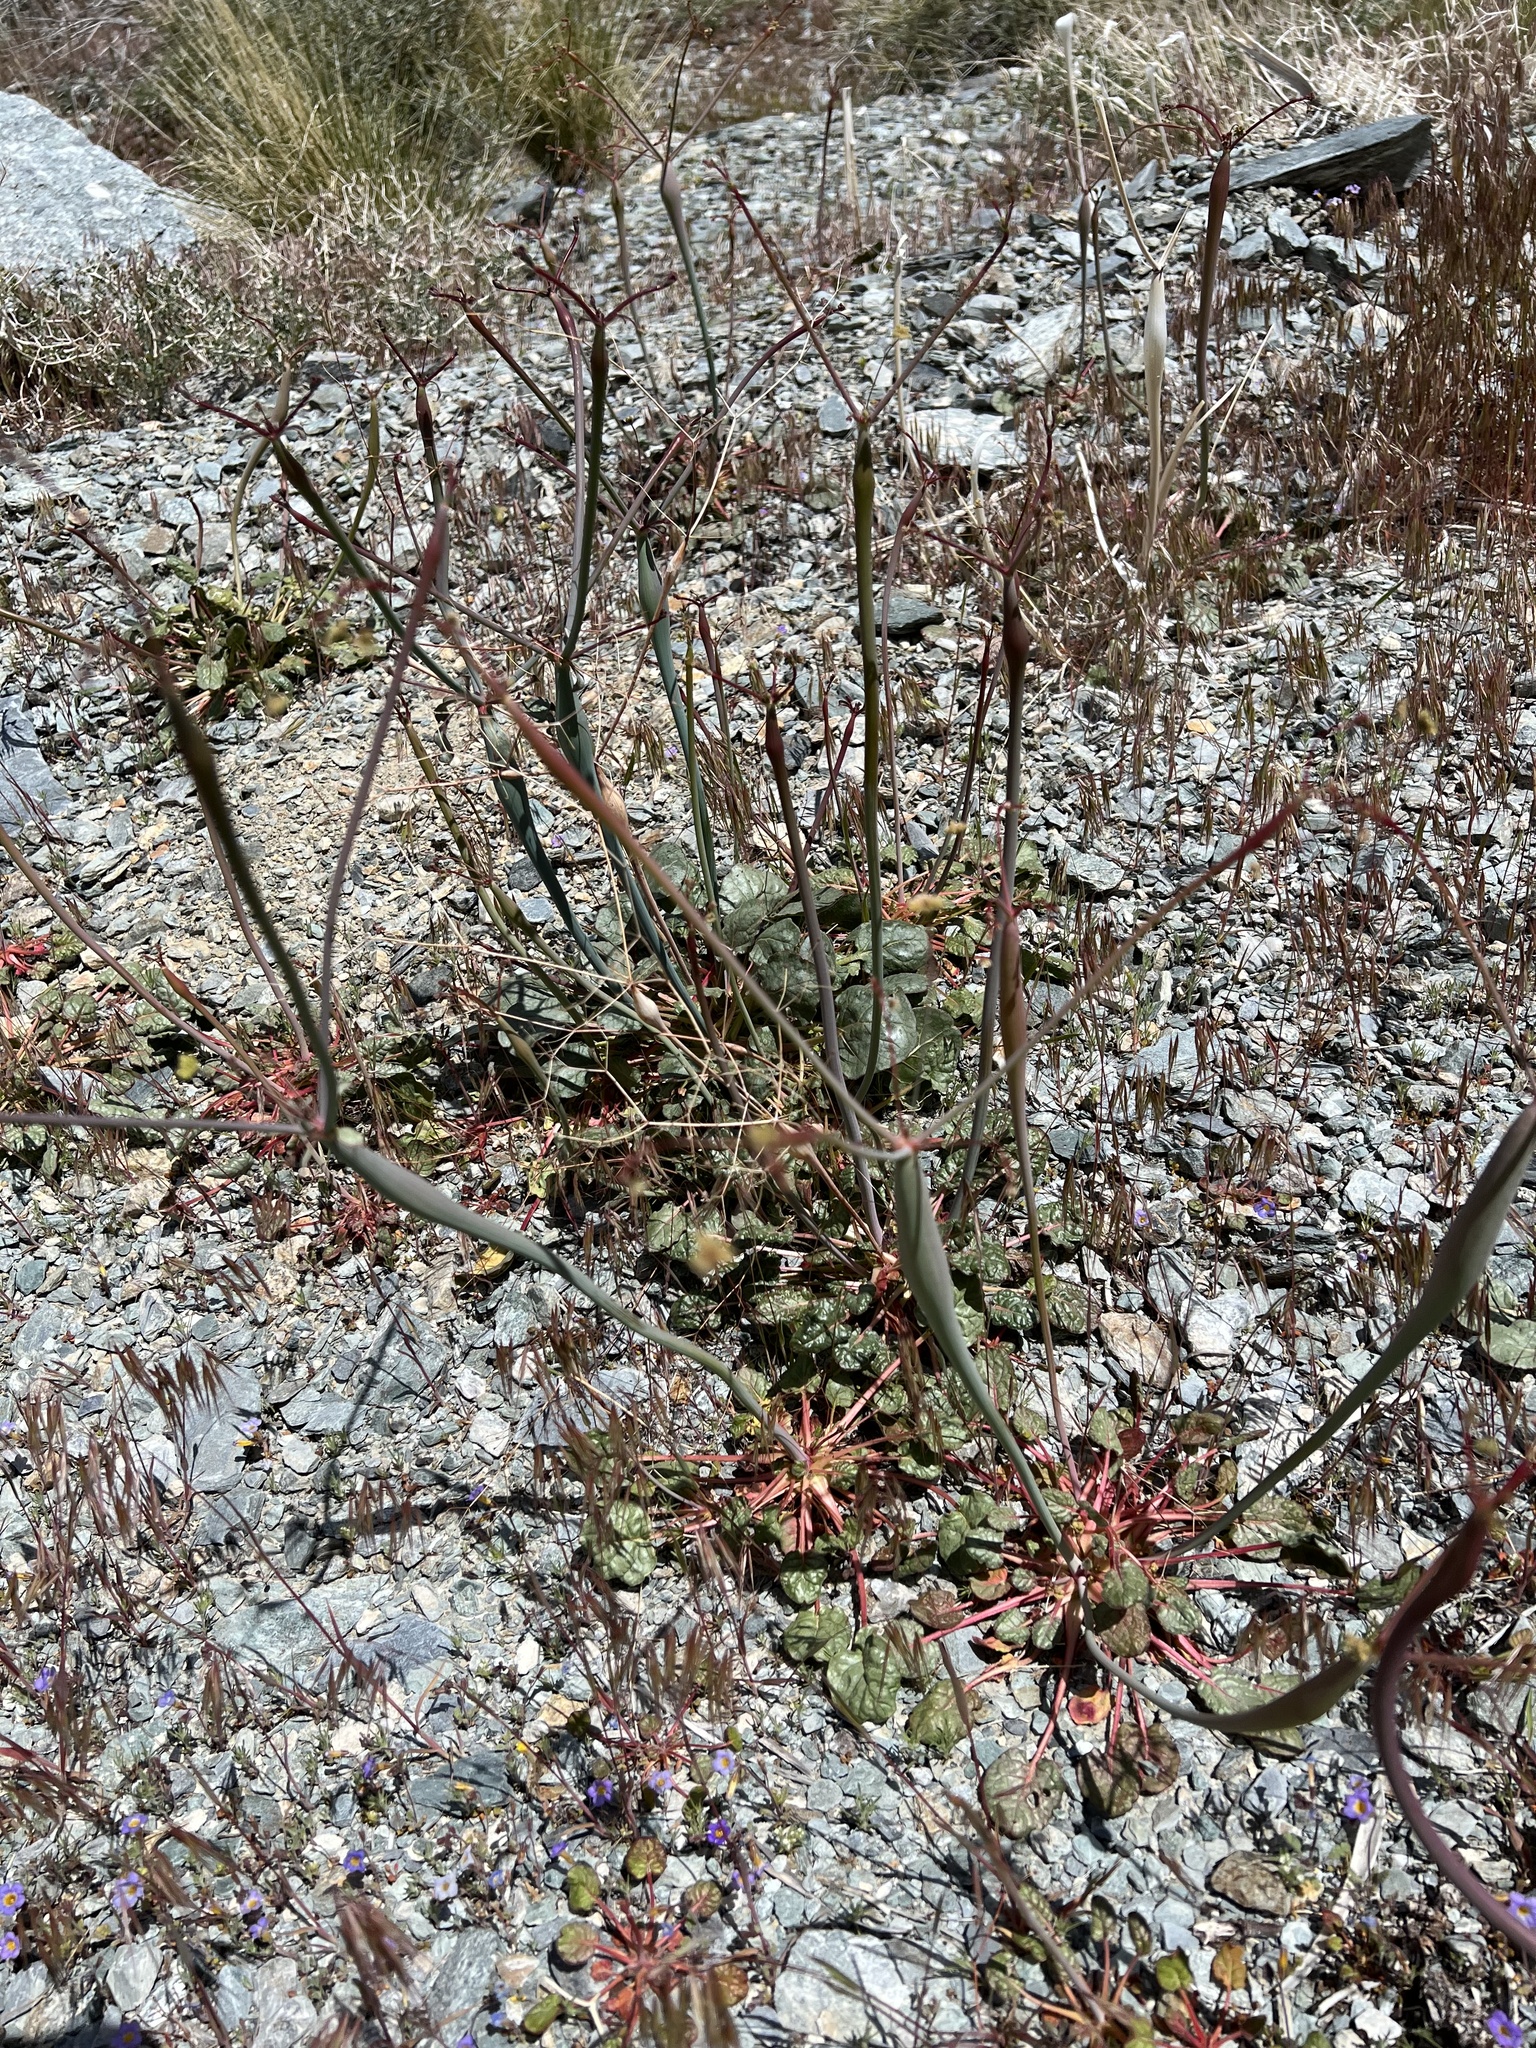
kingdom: Plantae
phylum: Tracheophyta
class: Magnoliopsida
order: Caryophyllales
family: Polygonaceae
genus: Eriogonum
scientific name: Eriogonum inflatum
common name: Desert trumpet
